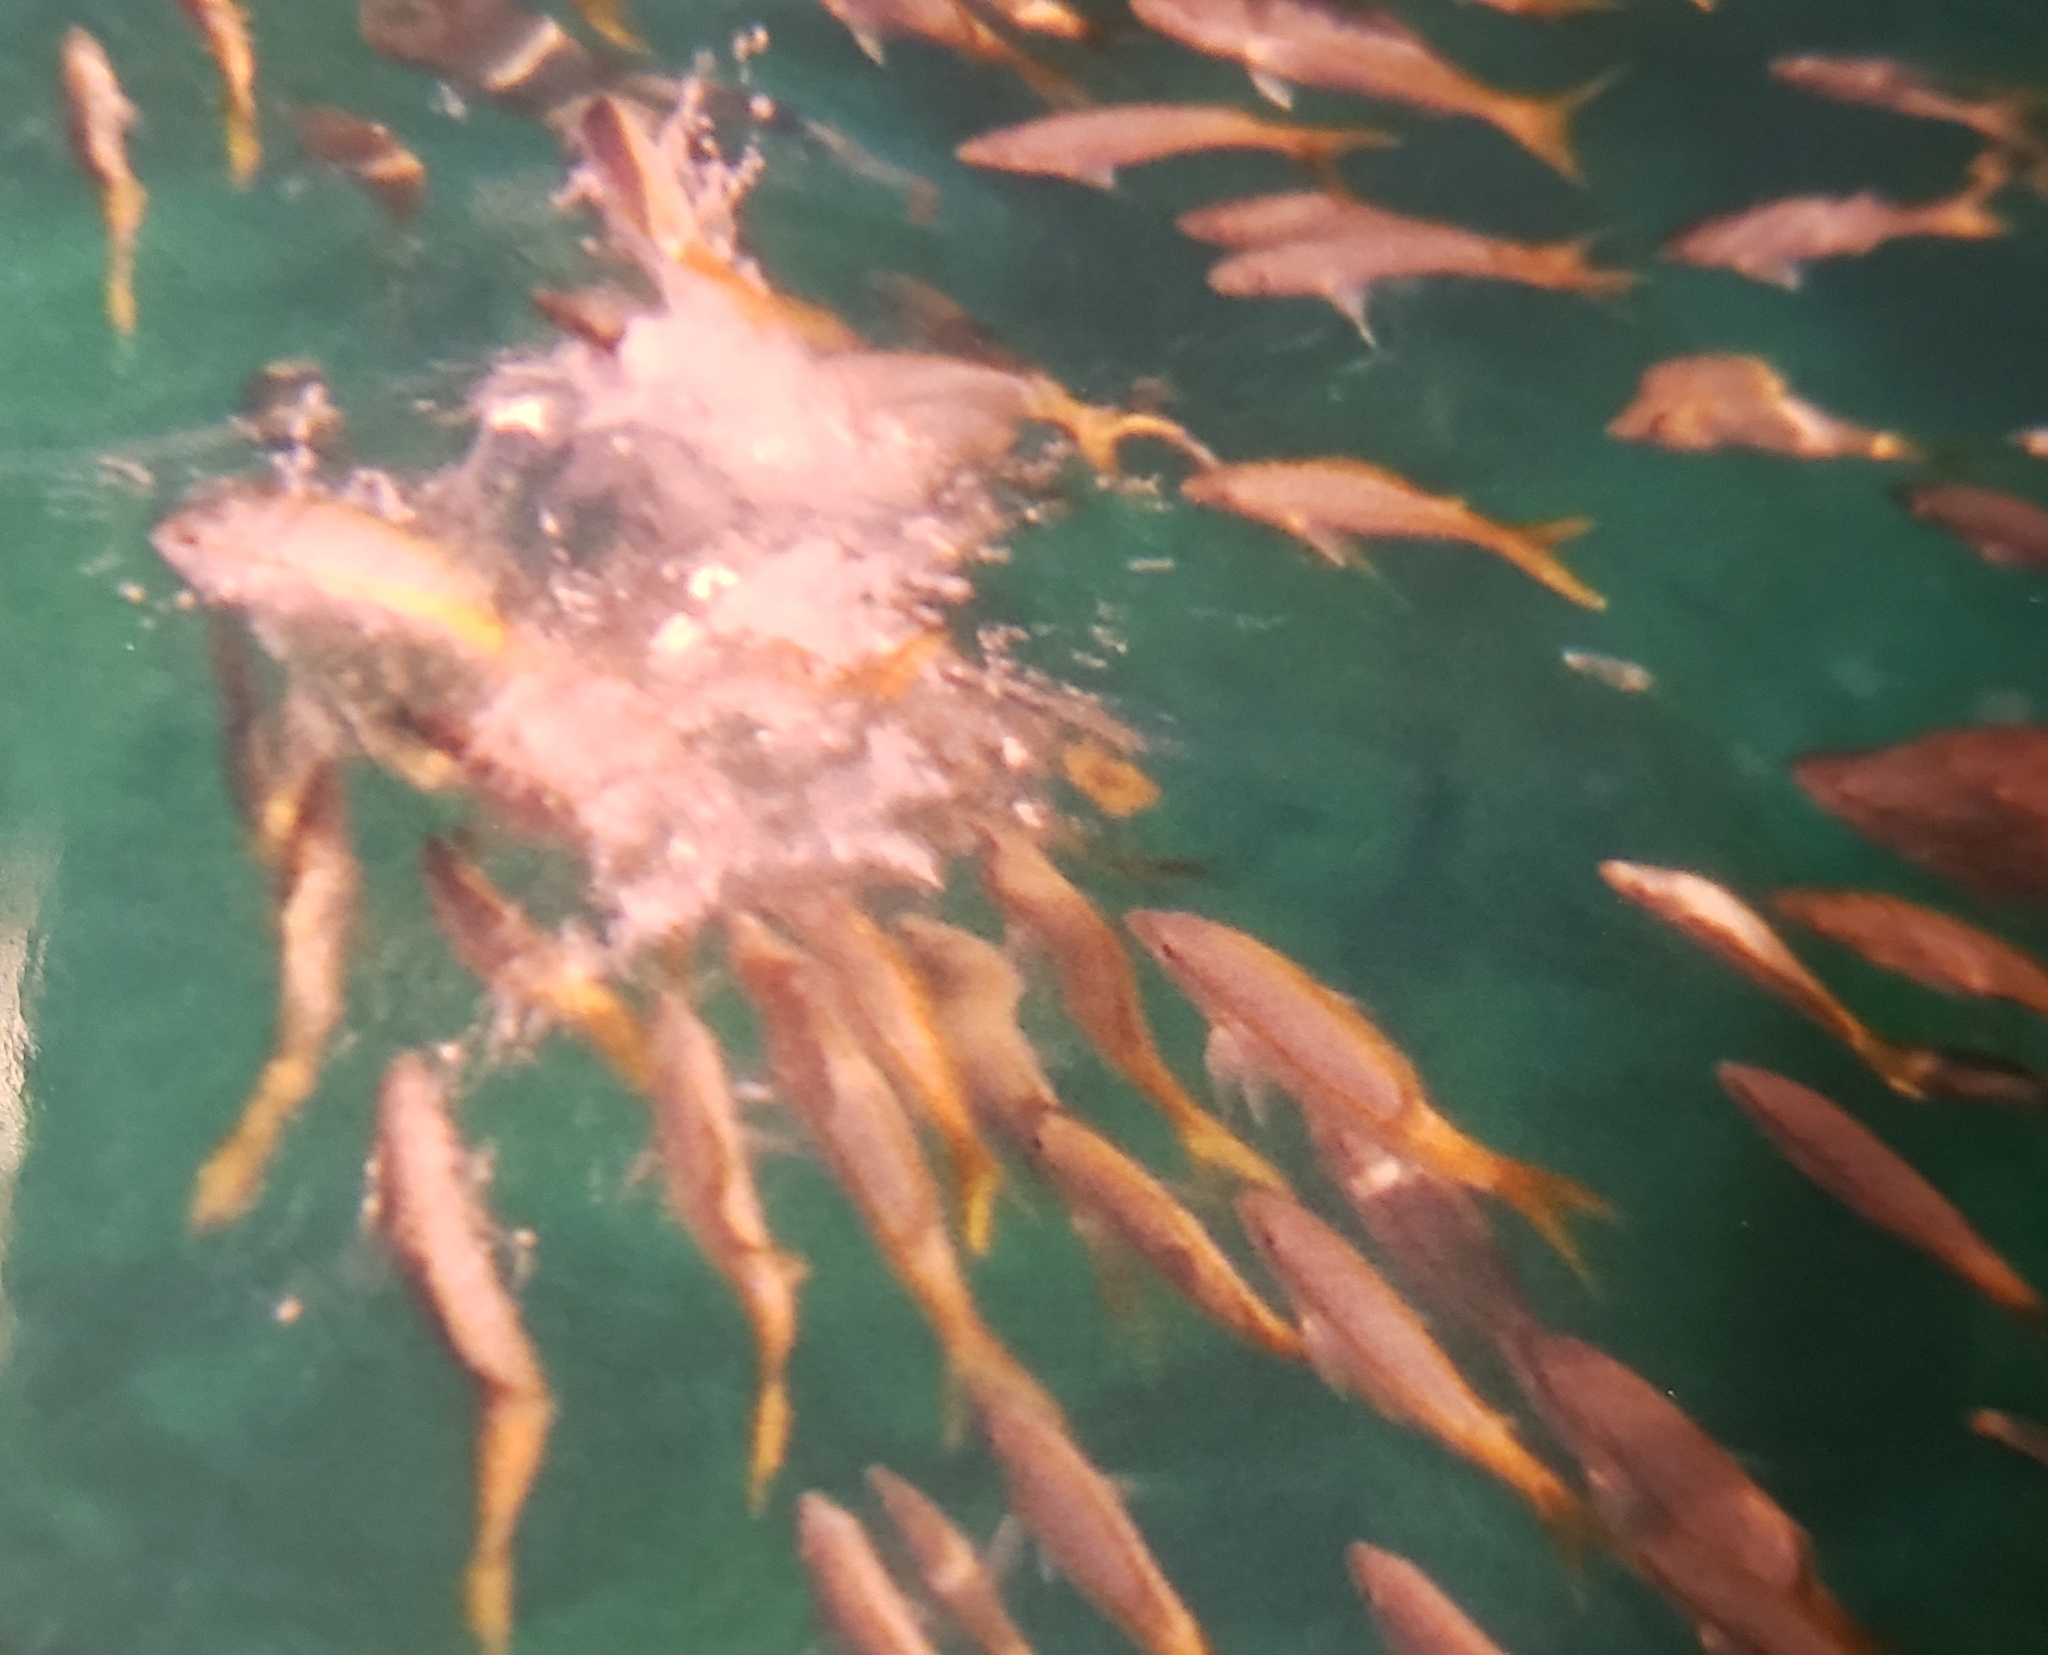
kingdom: Animalia
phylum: Chordata
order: Perciformes
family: Lutjanidae
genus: Ocyurus
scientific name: Ocyurus chrysurus
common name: Yellowtail snapper
